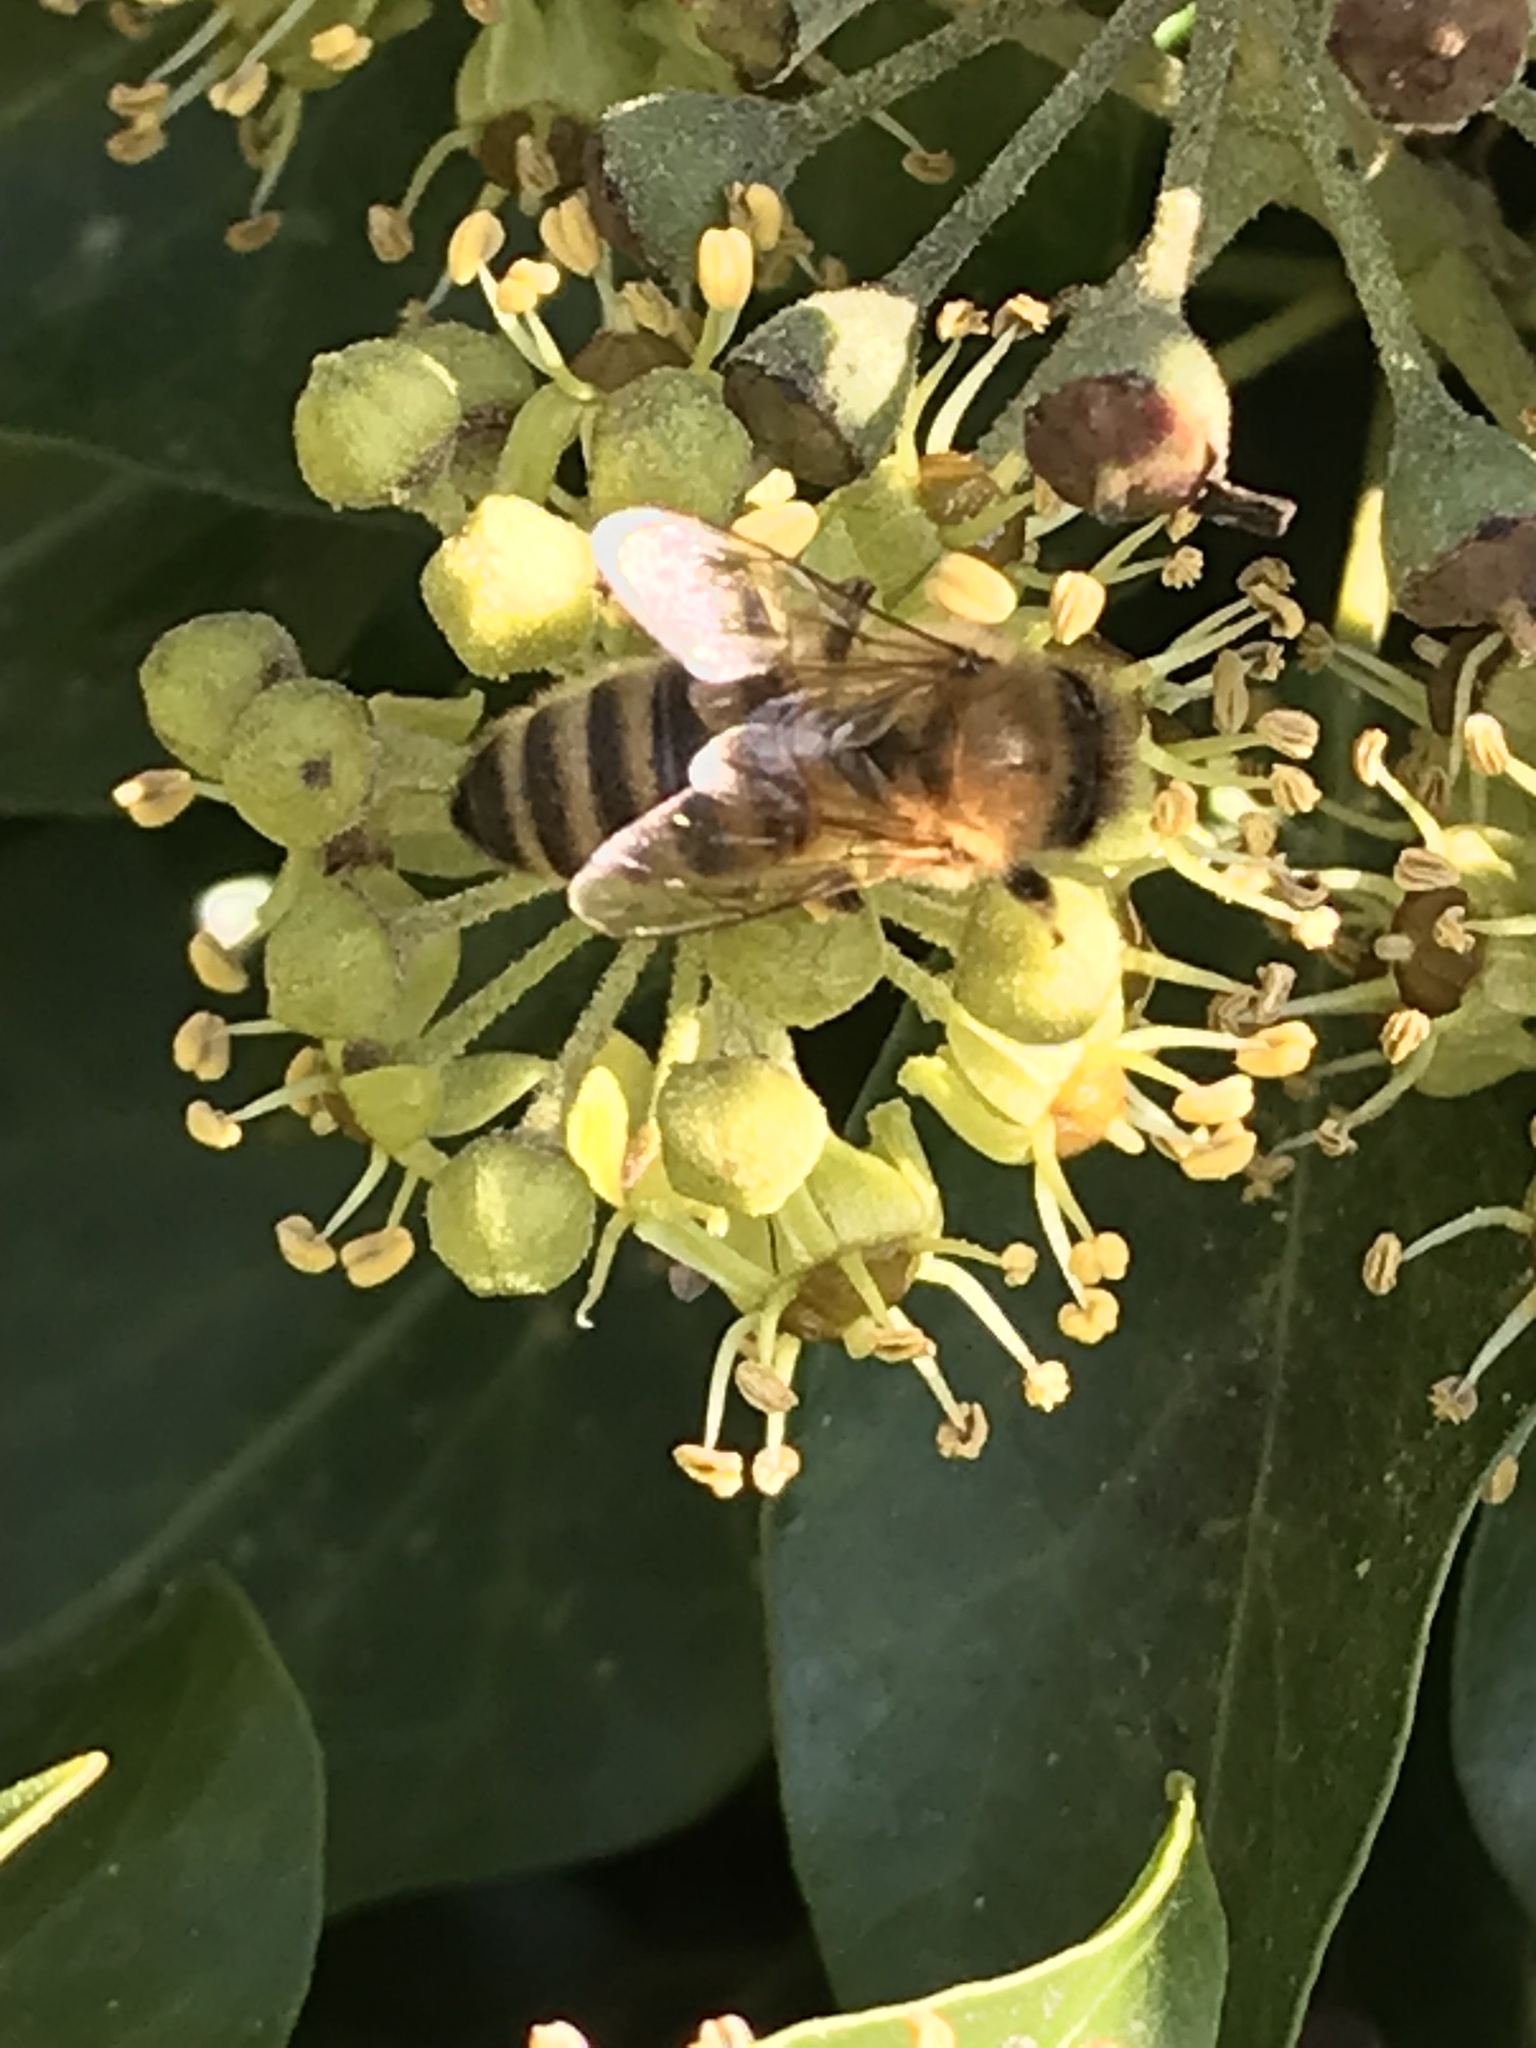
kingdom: Animalia
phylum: Arthropoda
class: Insecta
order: Hymenoptera
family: Apidae
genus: Apis
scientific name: Apis mellifera
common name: Honey bee
